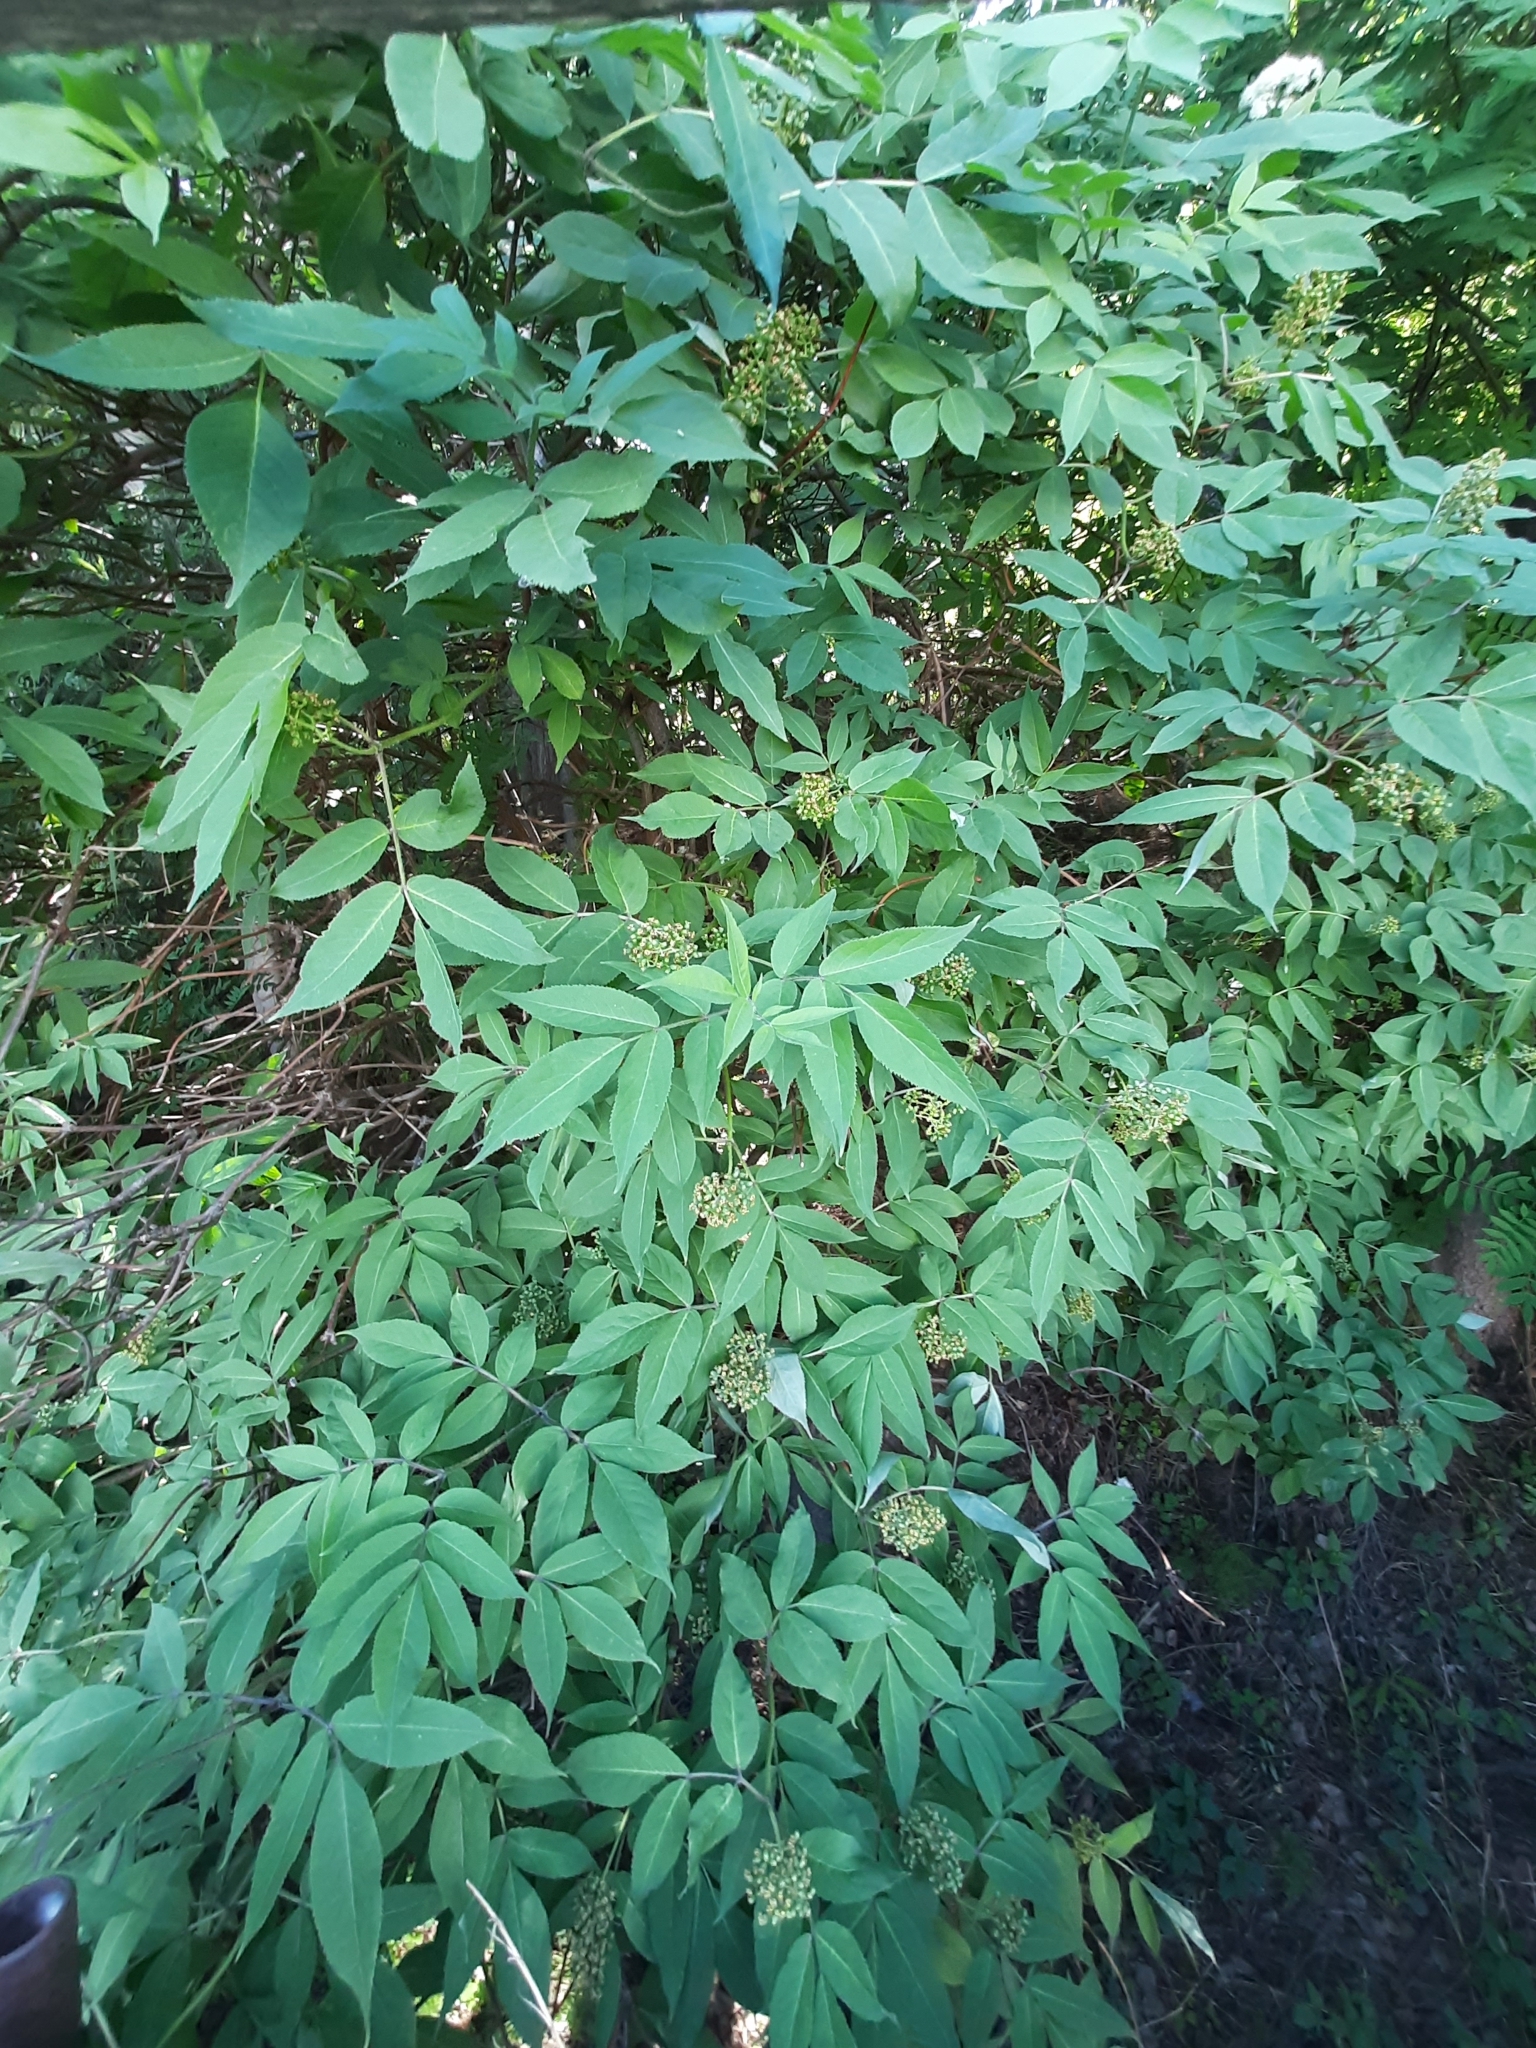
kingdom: Plantae
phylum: Tracheophyta
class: Magnoliopsida
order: Dipsacales
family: Viburnaceae
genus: Sambucus
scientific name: Sambucus sibirica
